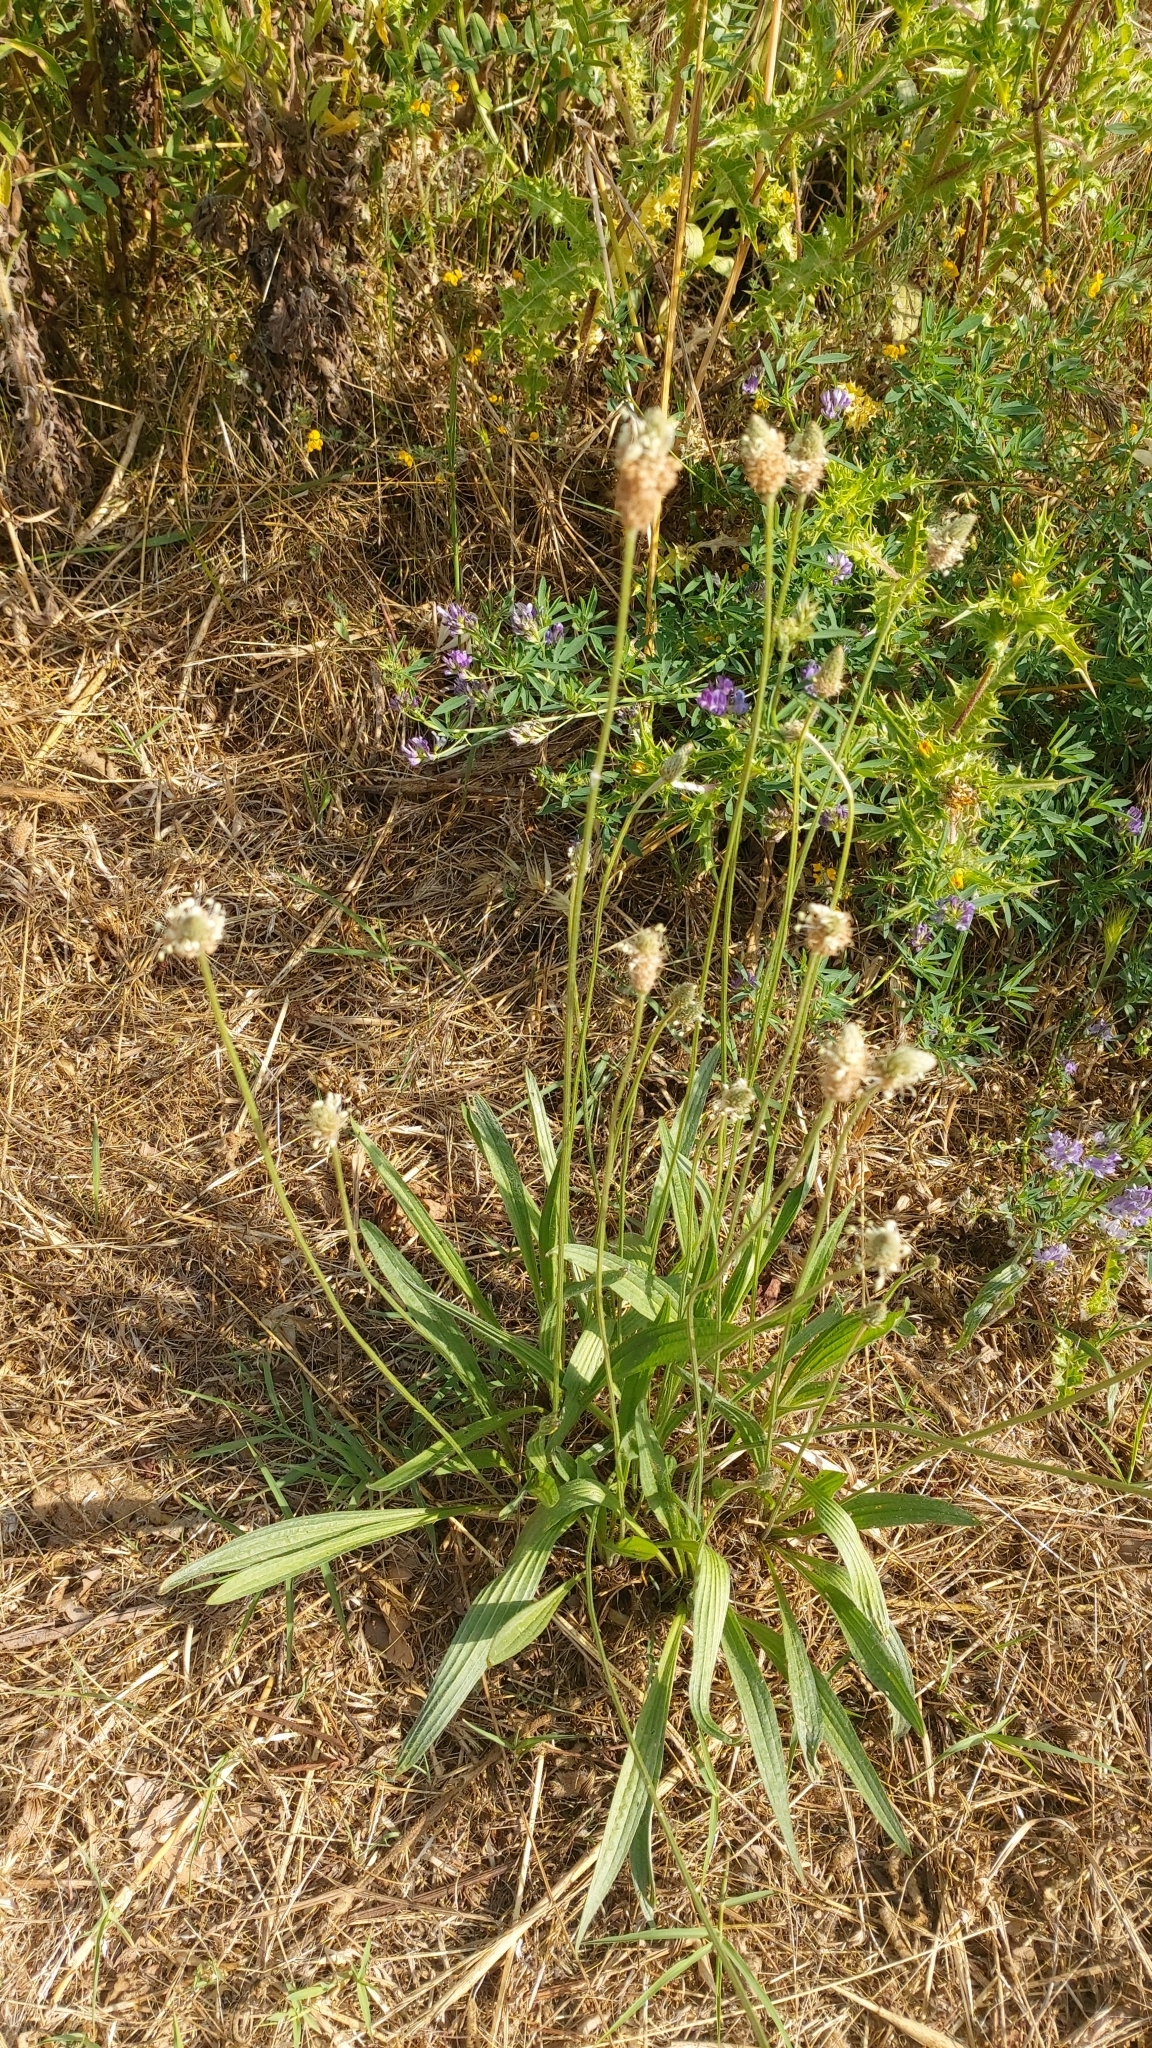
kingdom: Plantae
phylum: Tracheophyta
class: Magnoliopsida
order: Lamiales
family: Plantaginaceae
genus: Plantago
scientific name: Plantago lanceolata
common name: Ribwort plantain
